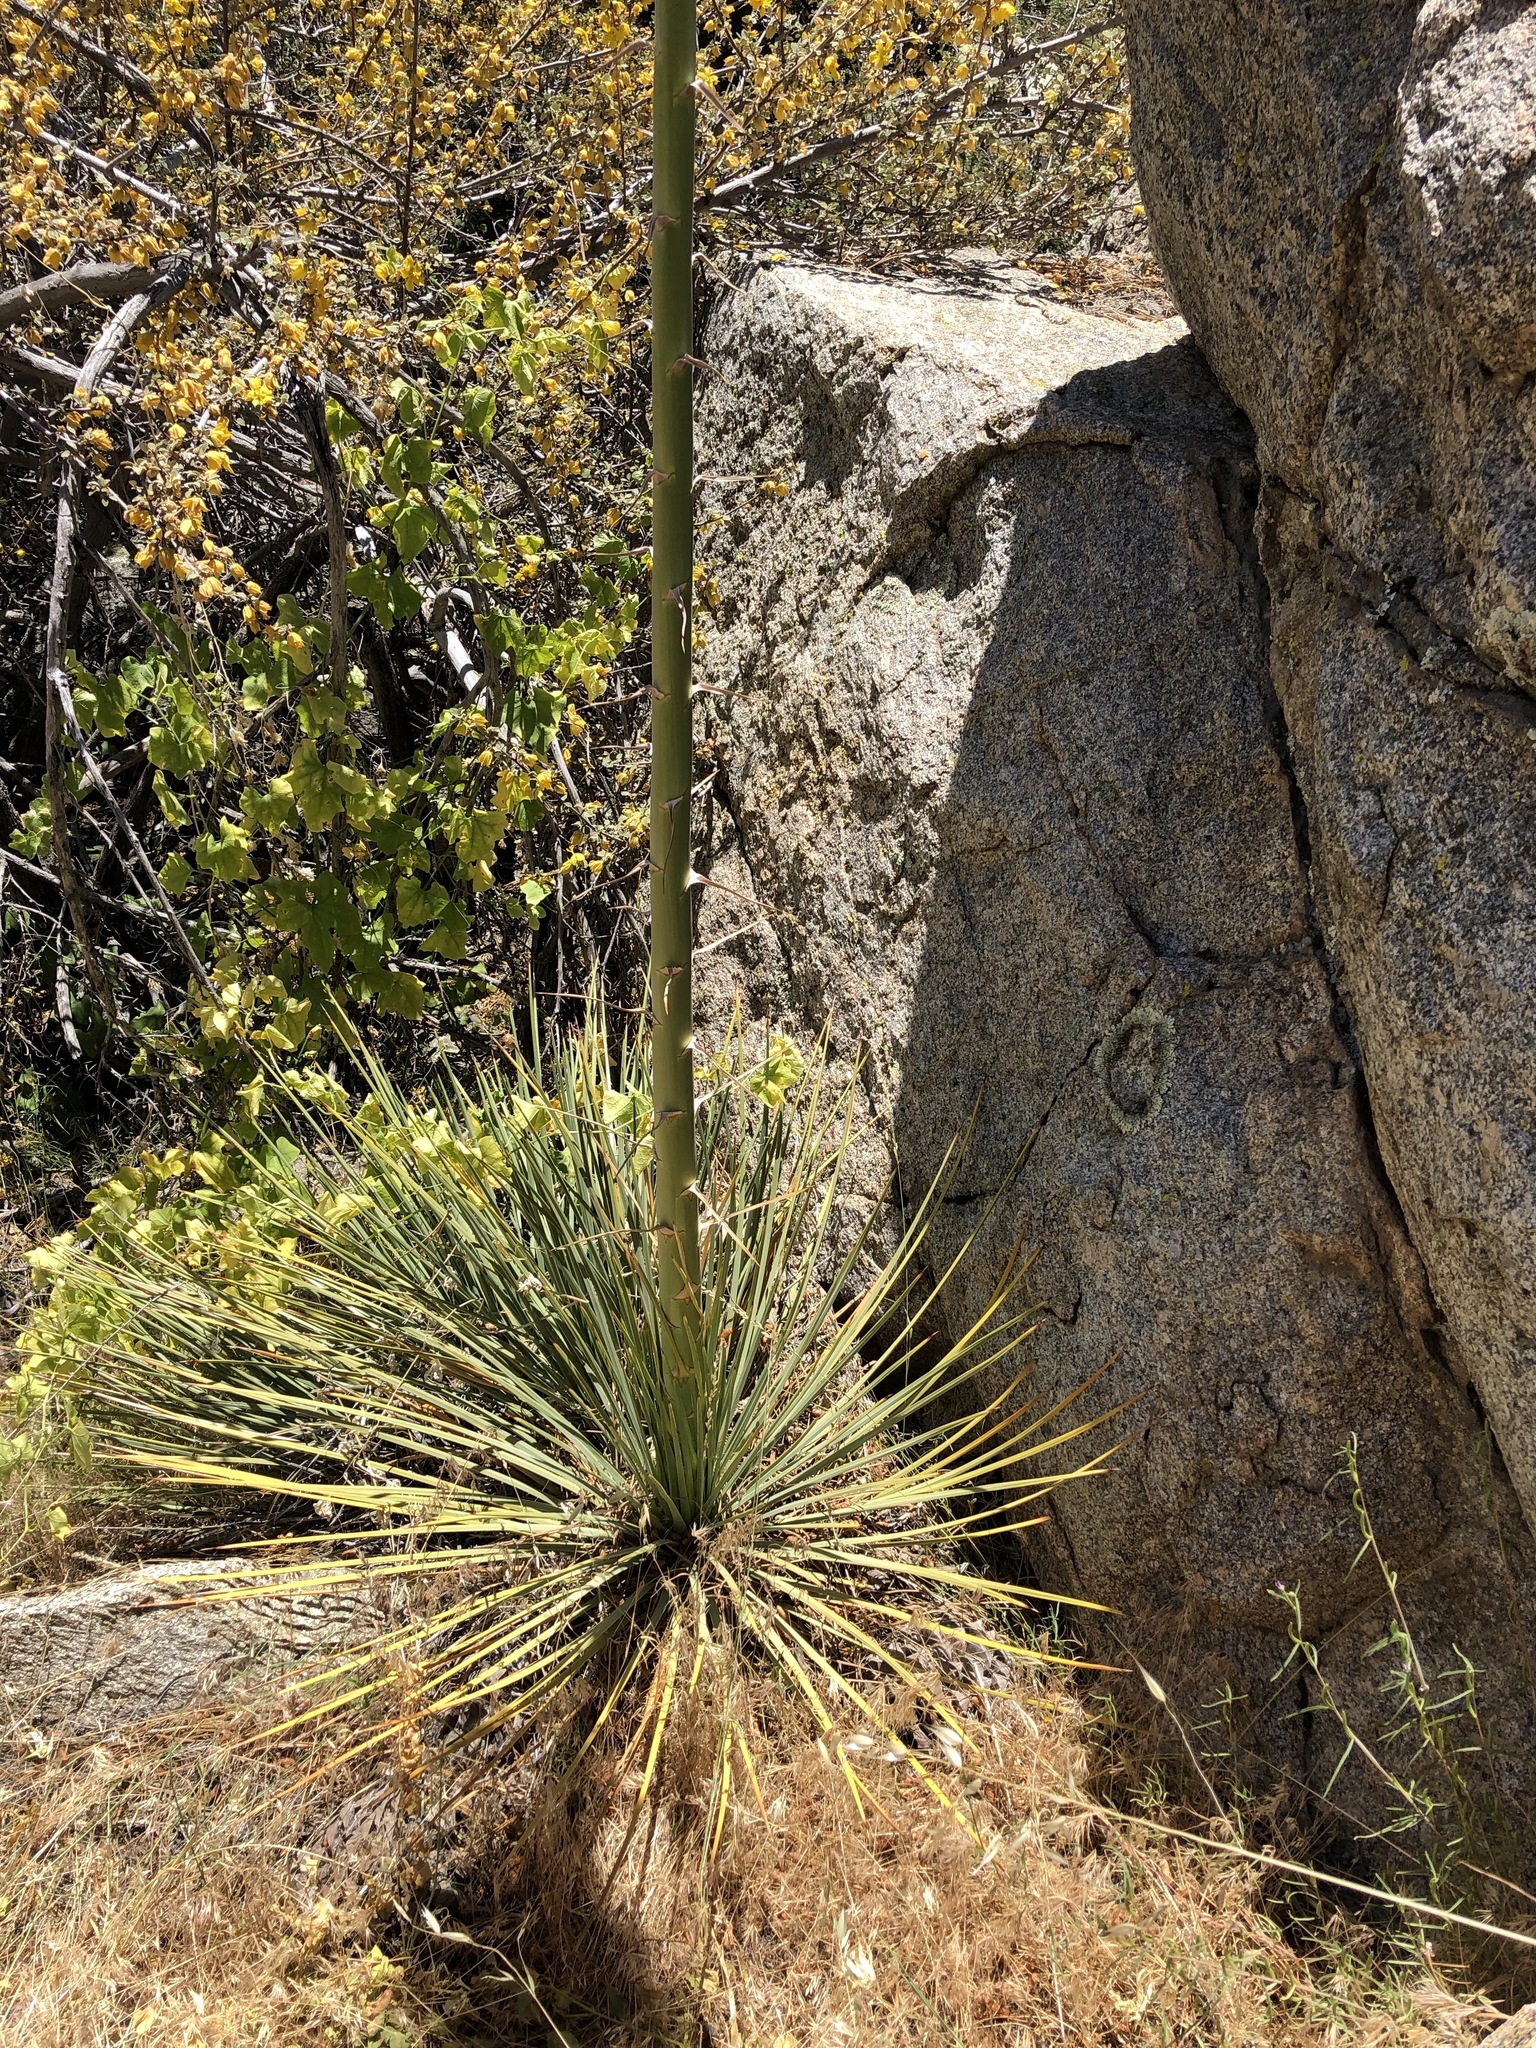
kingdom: Plantae
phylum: Tracheophyta
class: Liliopsida
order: Asparagales
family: Asparagaceae
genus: Hesperoyucca
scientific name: Hesperoyucca whipplei
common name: Our lord's-candle
